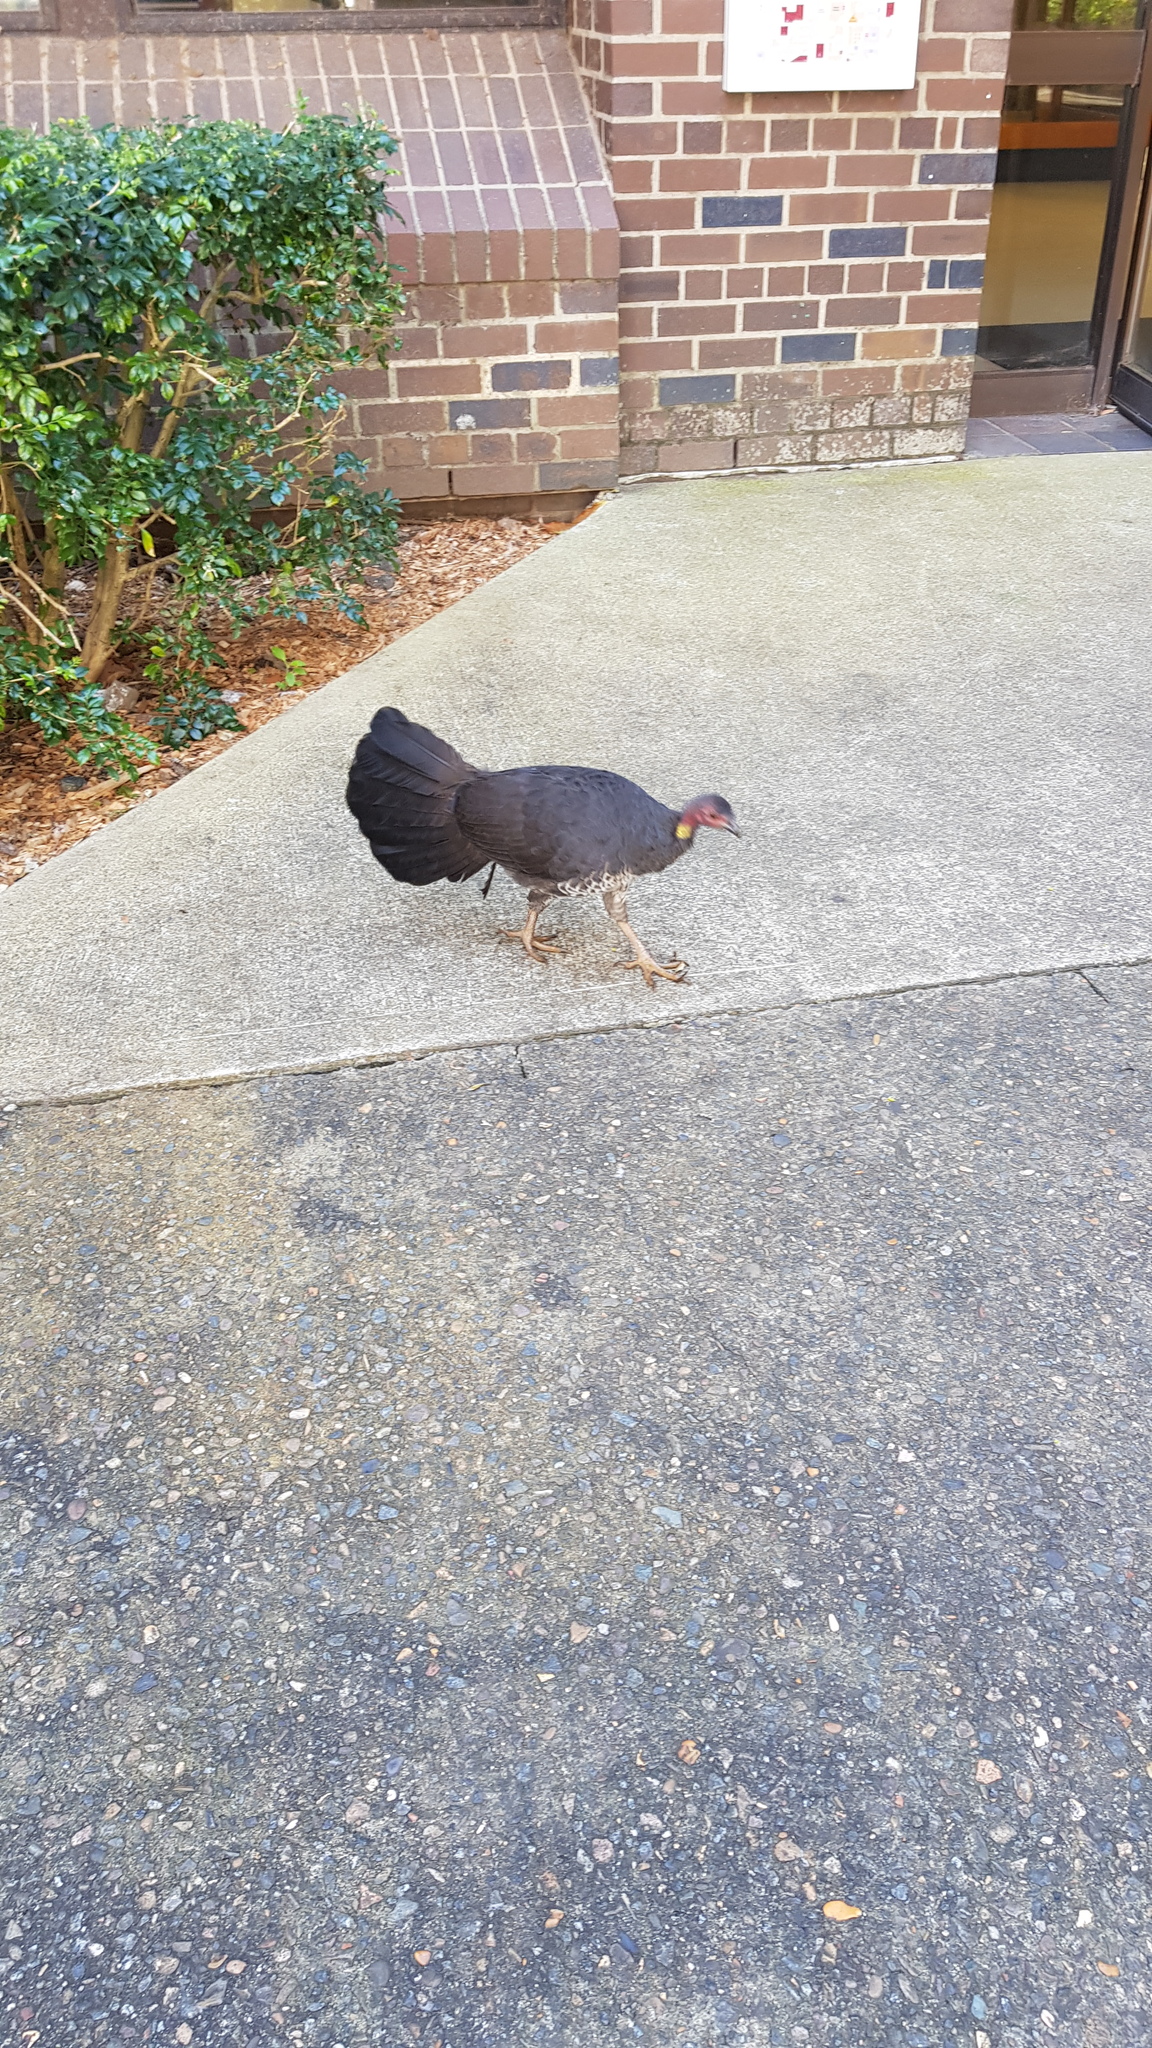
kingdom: Animalia
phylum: Chordata
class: Aves
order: Galliformes
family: Megapodiidae
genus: Alectura
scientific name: Alectura lathami
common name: Australian brushturkey
